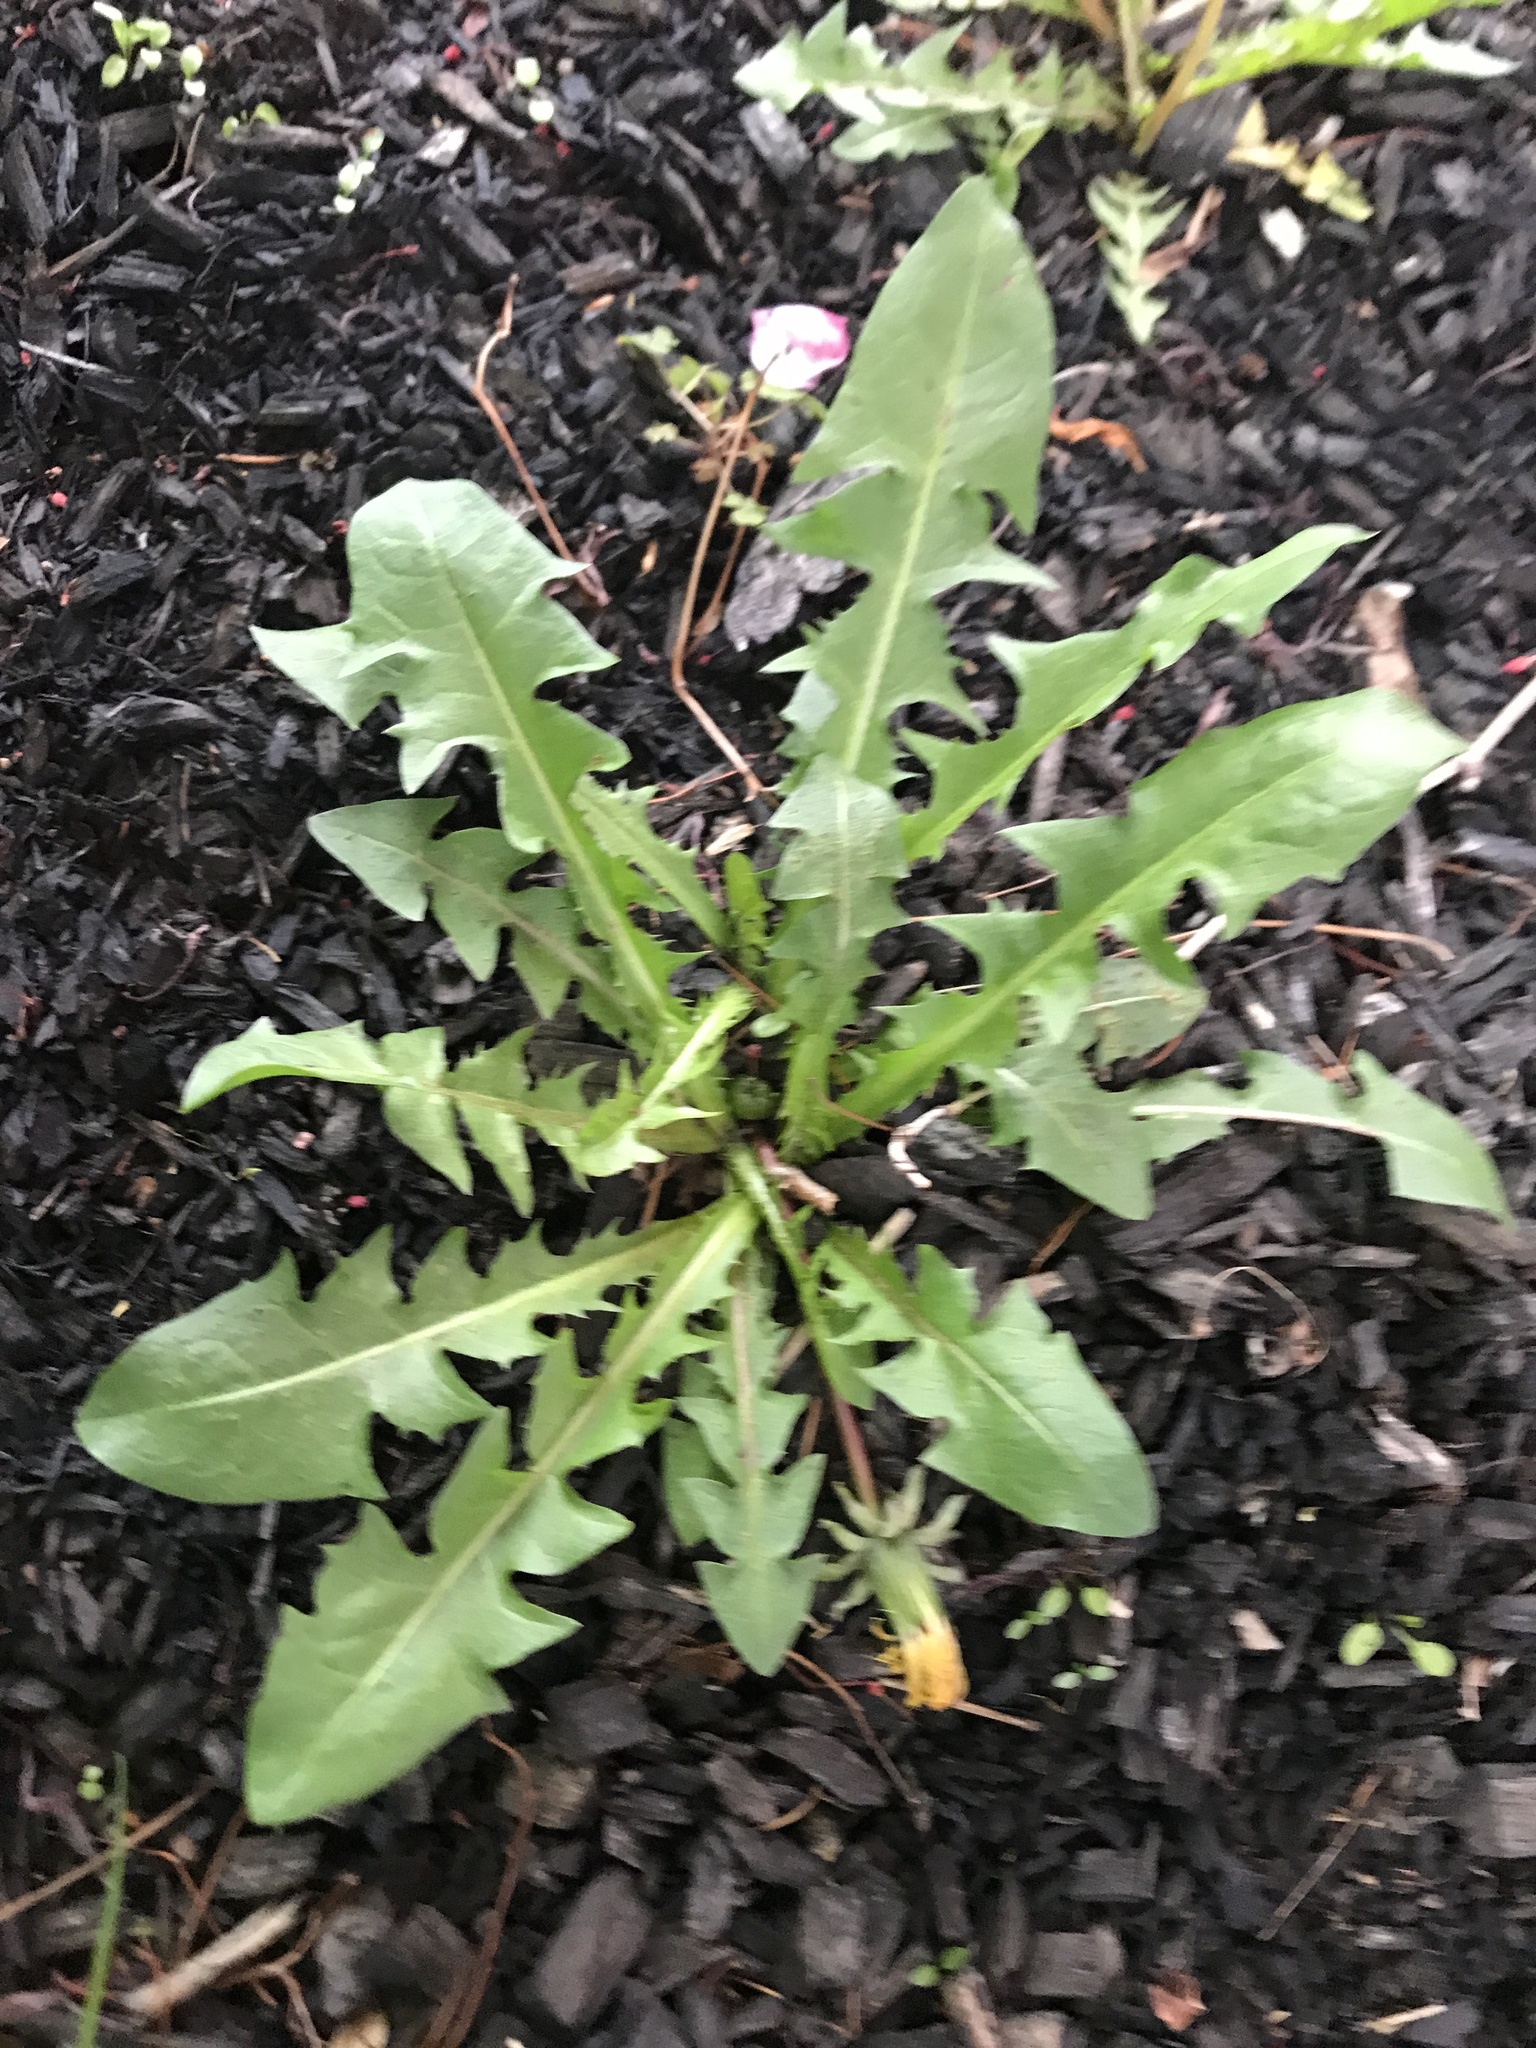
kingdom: Plantae
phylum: Tracheophyta
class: Magnoliopsida
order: Asterales
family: Asteraceae
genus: Taraxacum
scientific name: Taraxacum officinale
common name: Common dandelion
